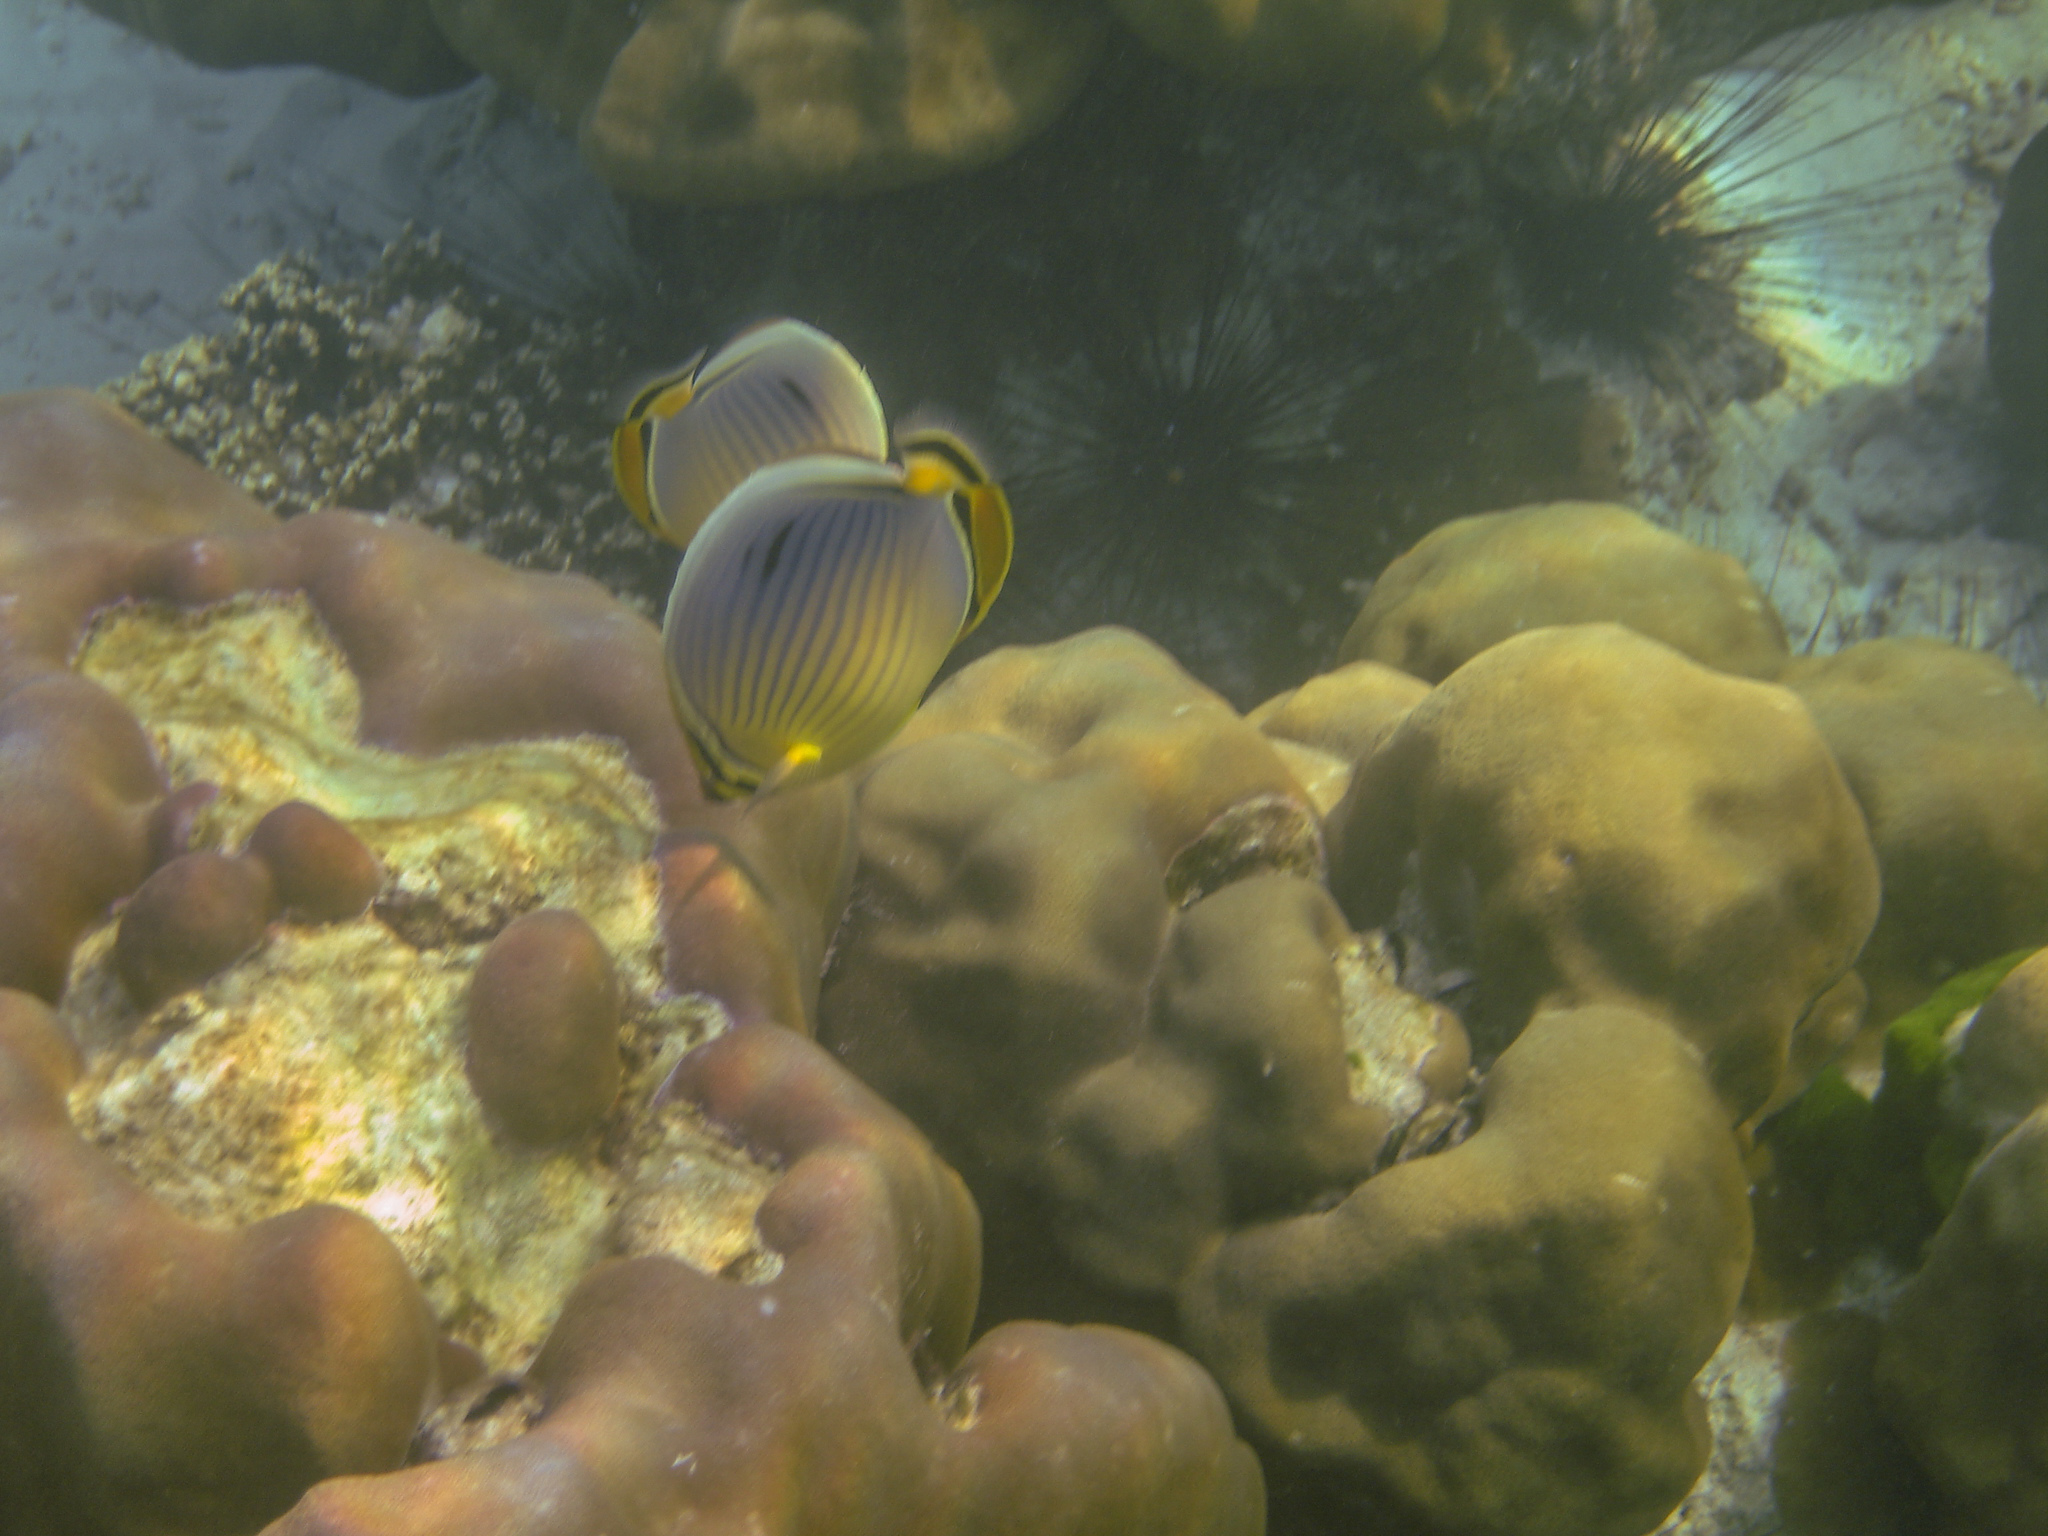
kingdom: Animalia
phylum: Chordata
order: Perciformes
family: Chaetodontidae
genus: Chaetodon
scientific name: Chaetodon trifasciatus
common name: Redfin butterflyfish
